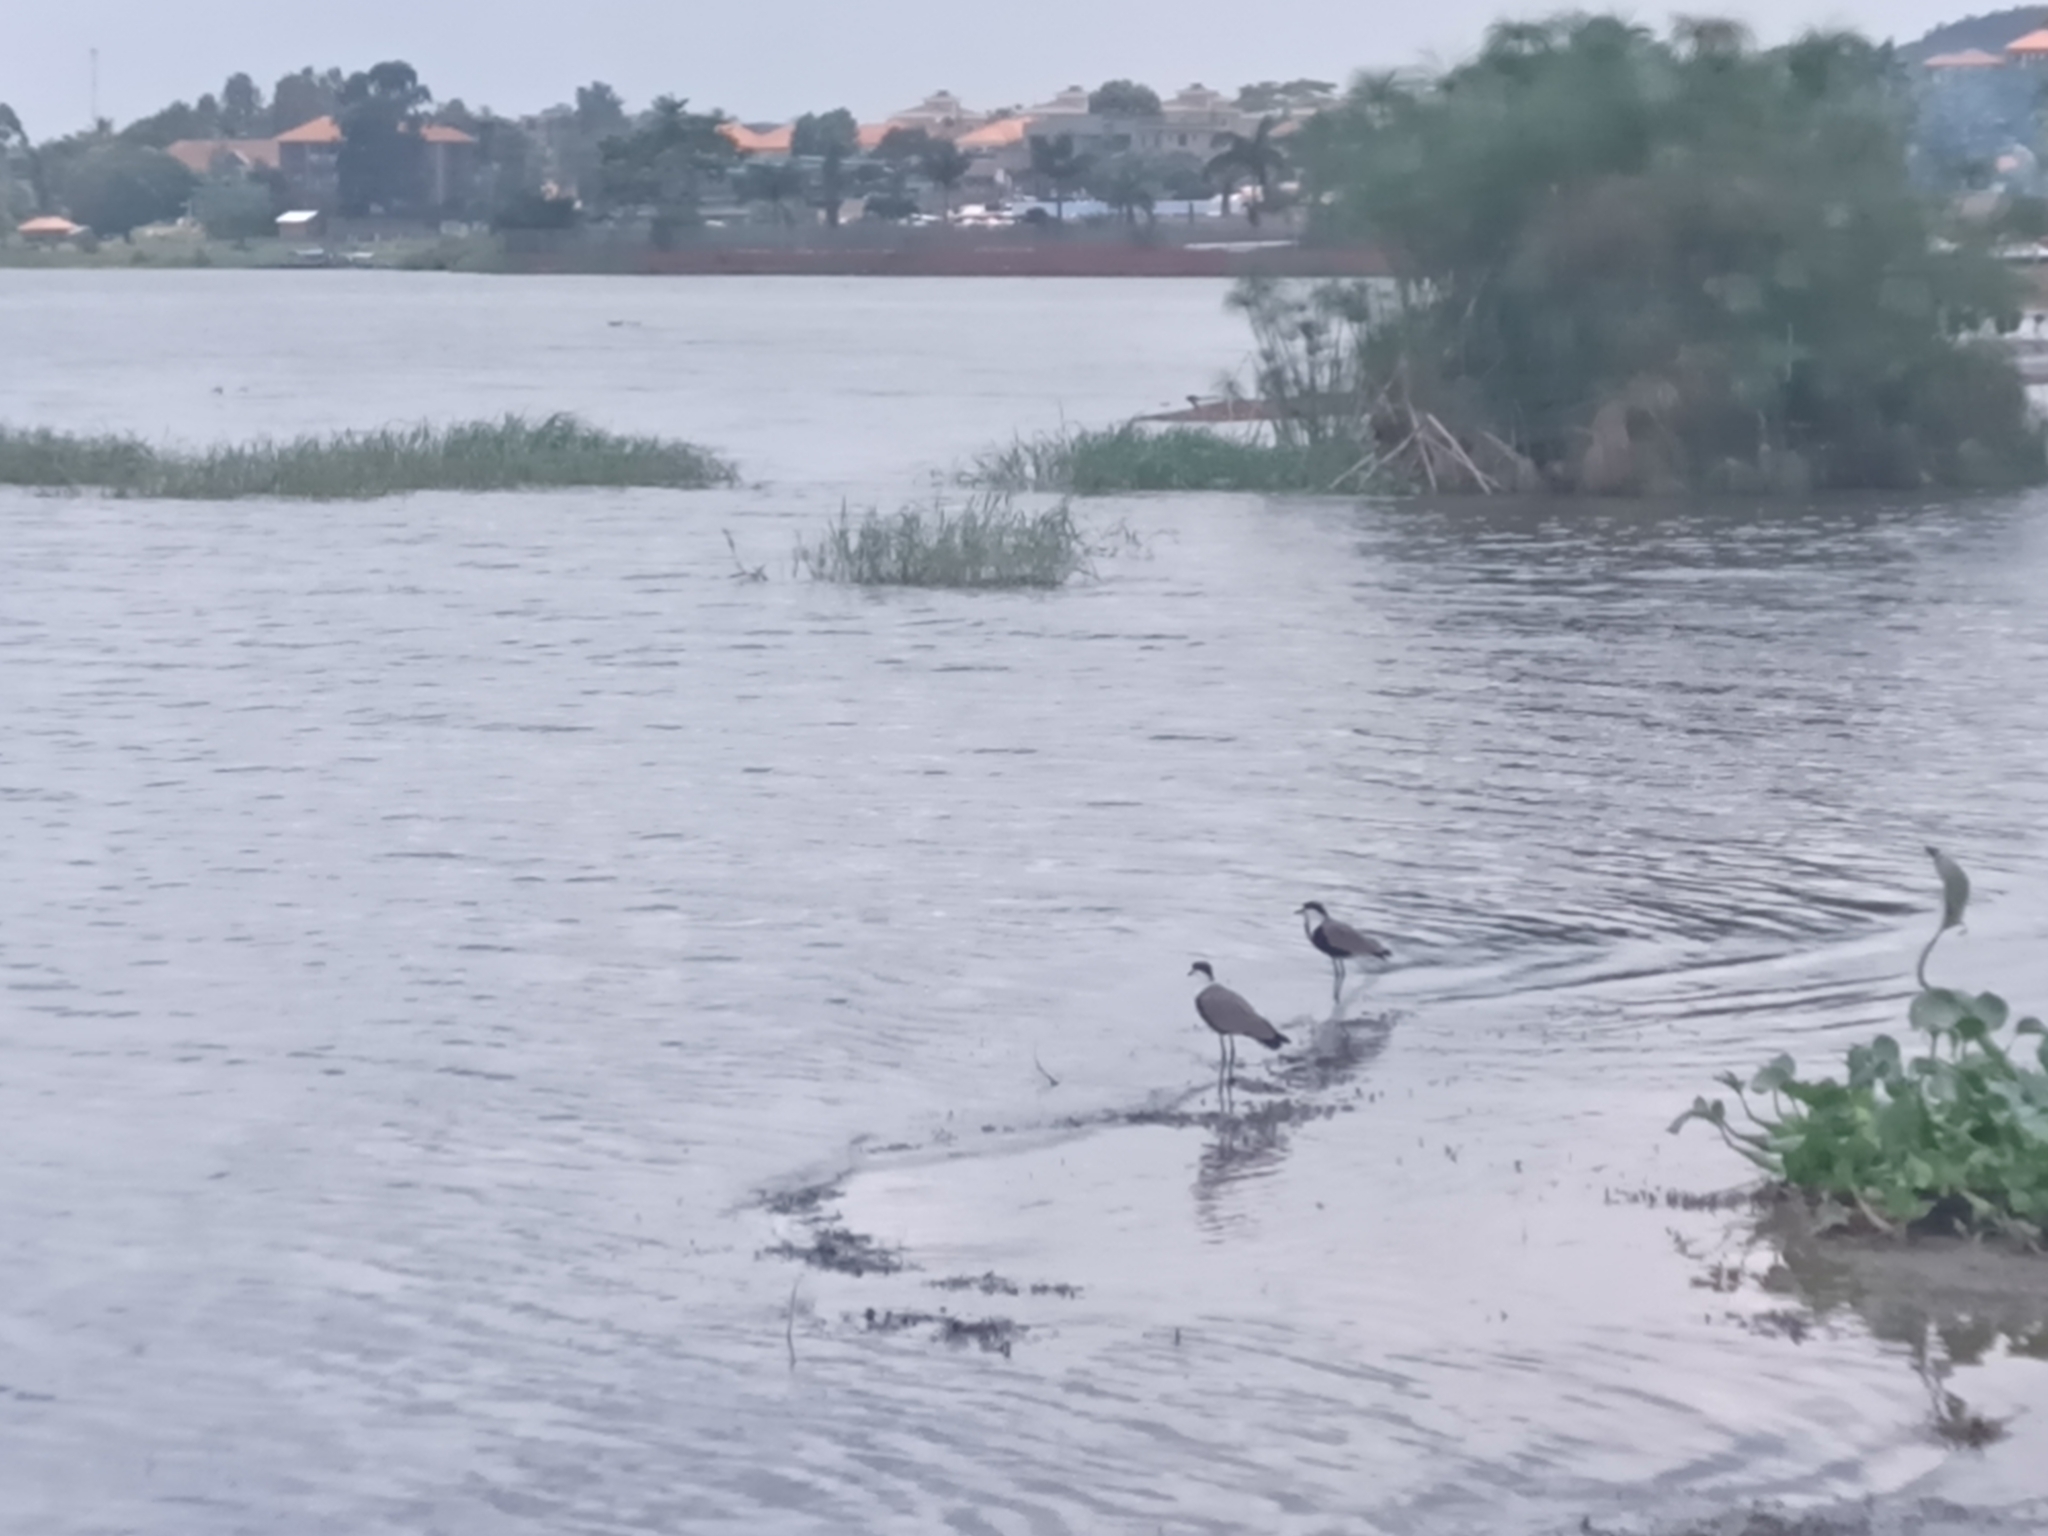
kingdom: Animalia
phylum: Chordata
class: Aves
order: Charadriiformes
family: Charadriidae
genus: Vanellus
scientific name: Vanellus spinosus
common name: Spur-winged lapwing
